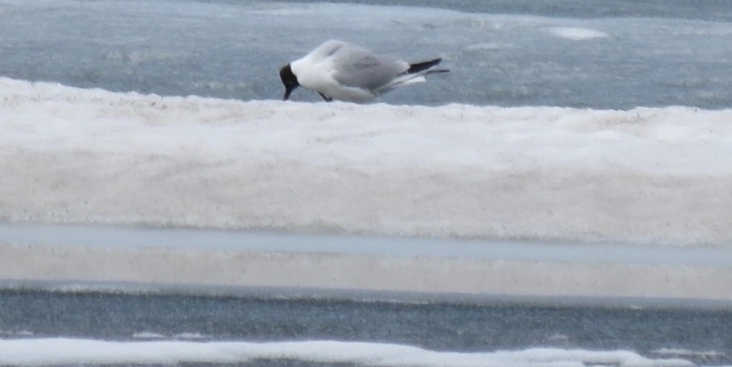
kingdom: Animalia
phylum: Chordata
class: Aves
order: Charadriiformes
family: Laridae
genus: Chroicocephalus
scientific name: Chroicocephalus ridibundus
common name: Black-headed gull
